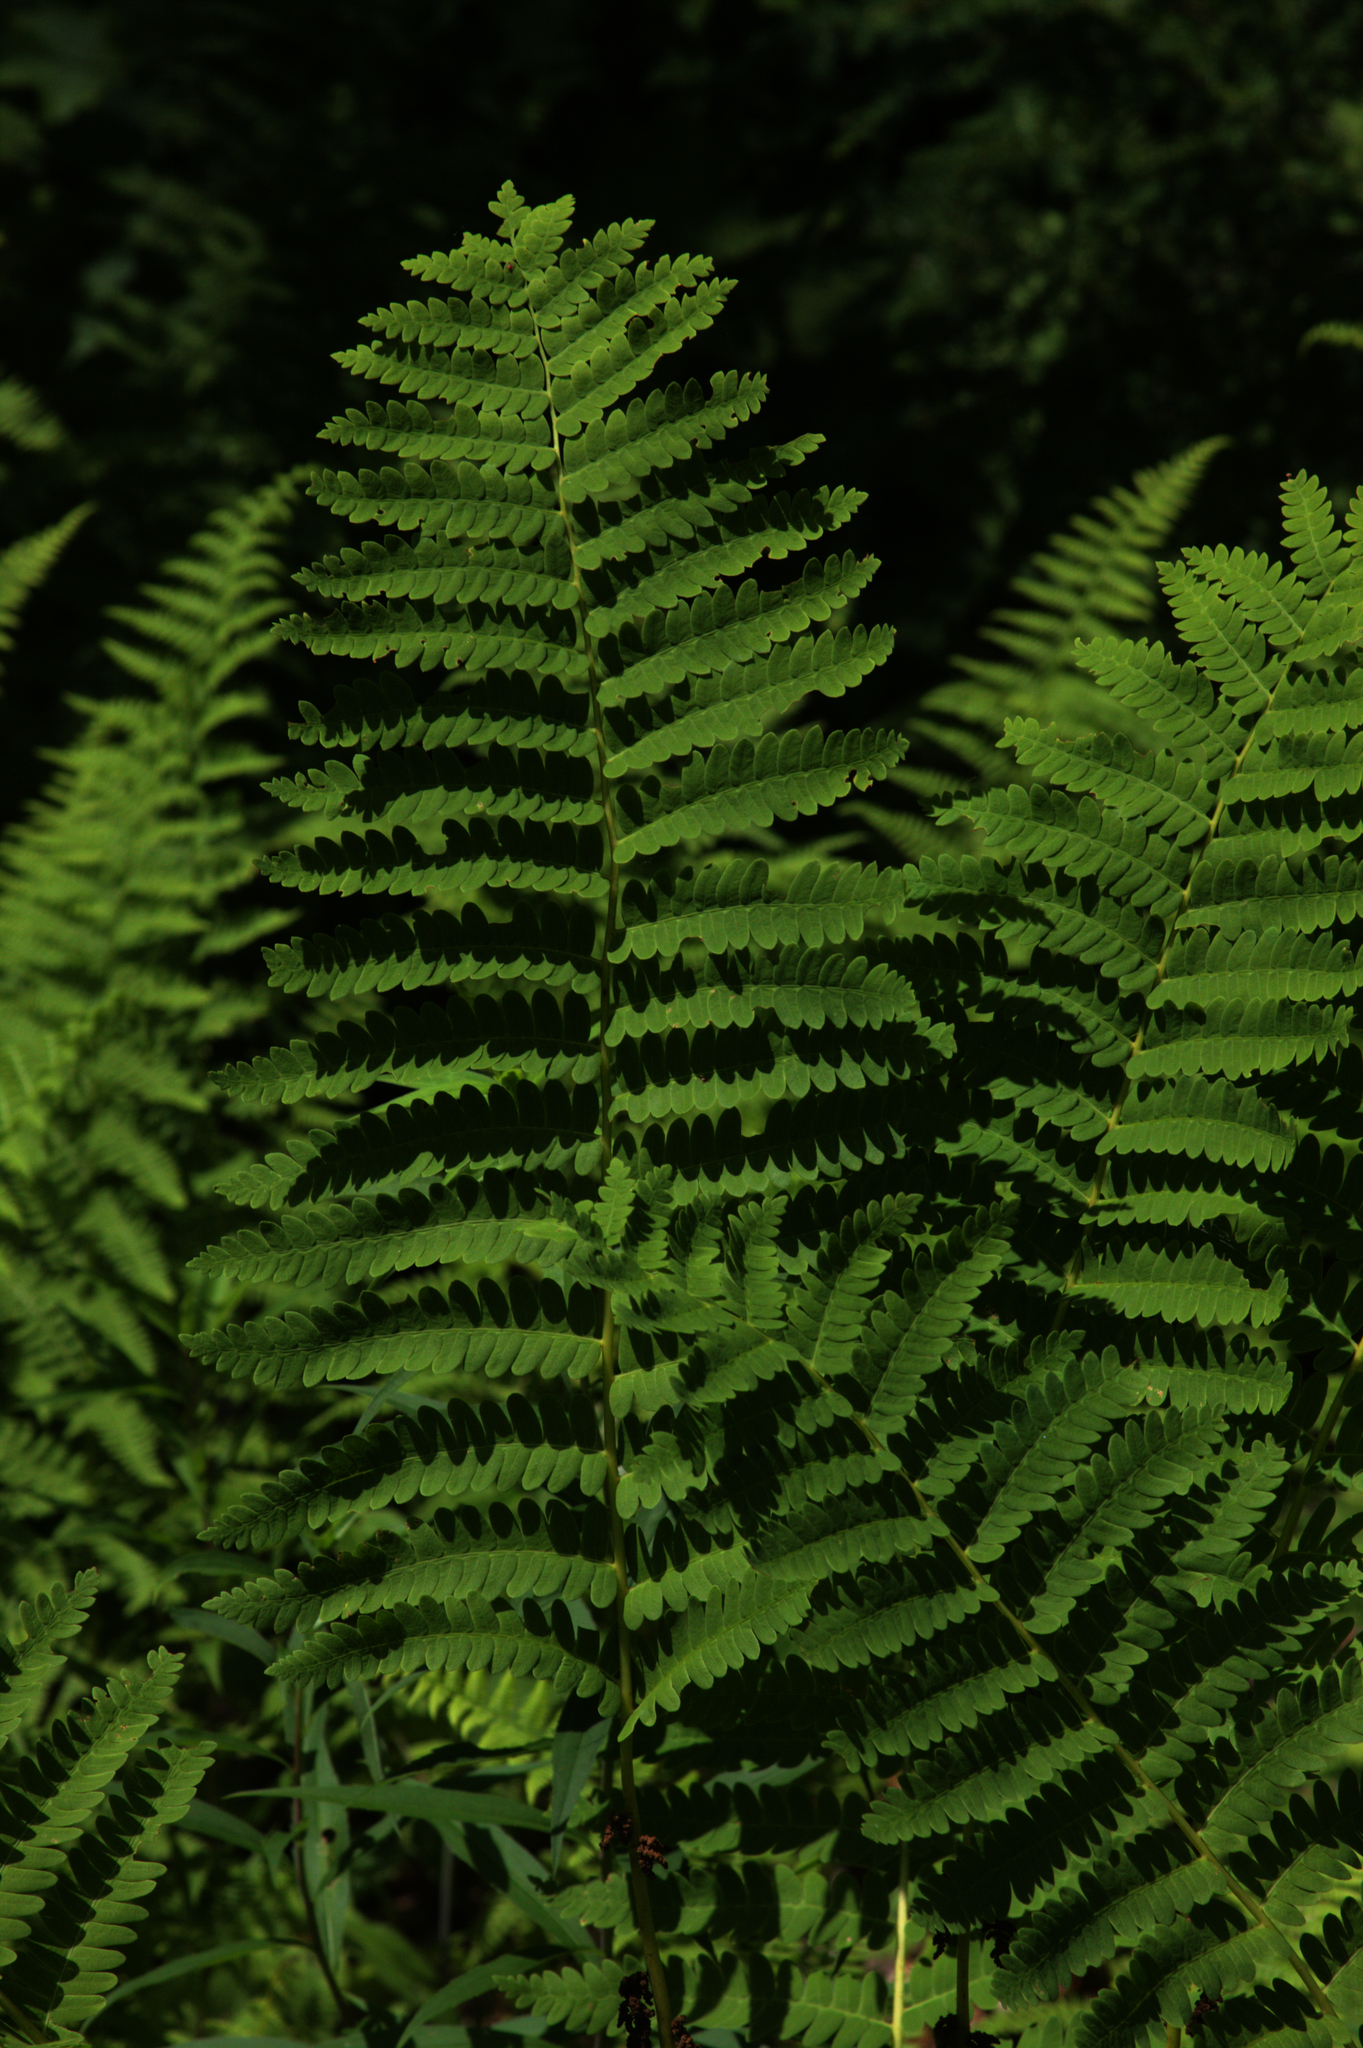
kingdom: Plantae
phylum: Tracheophyta
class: Polypodiopsida
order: Osmundales
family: Osmundaceae
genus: Claytosmunda
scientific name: Claytosmunda claytoniana
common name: Clayton's fern
